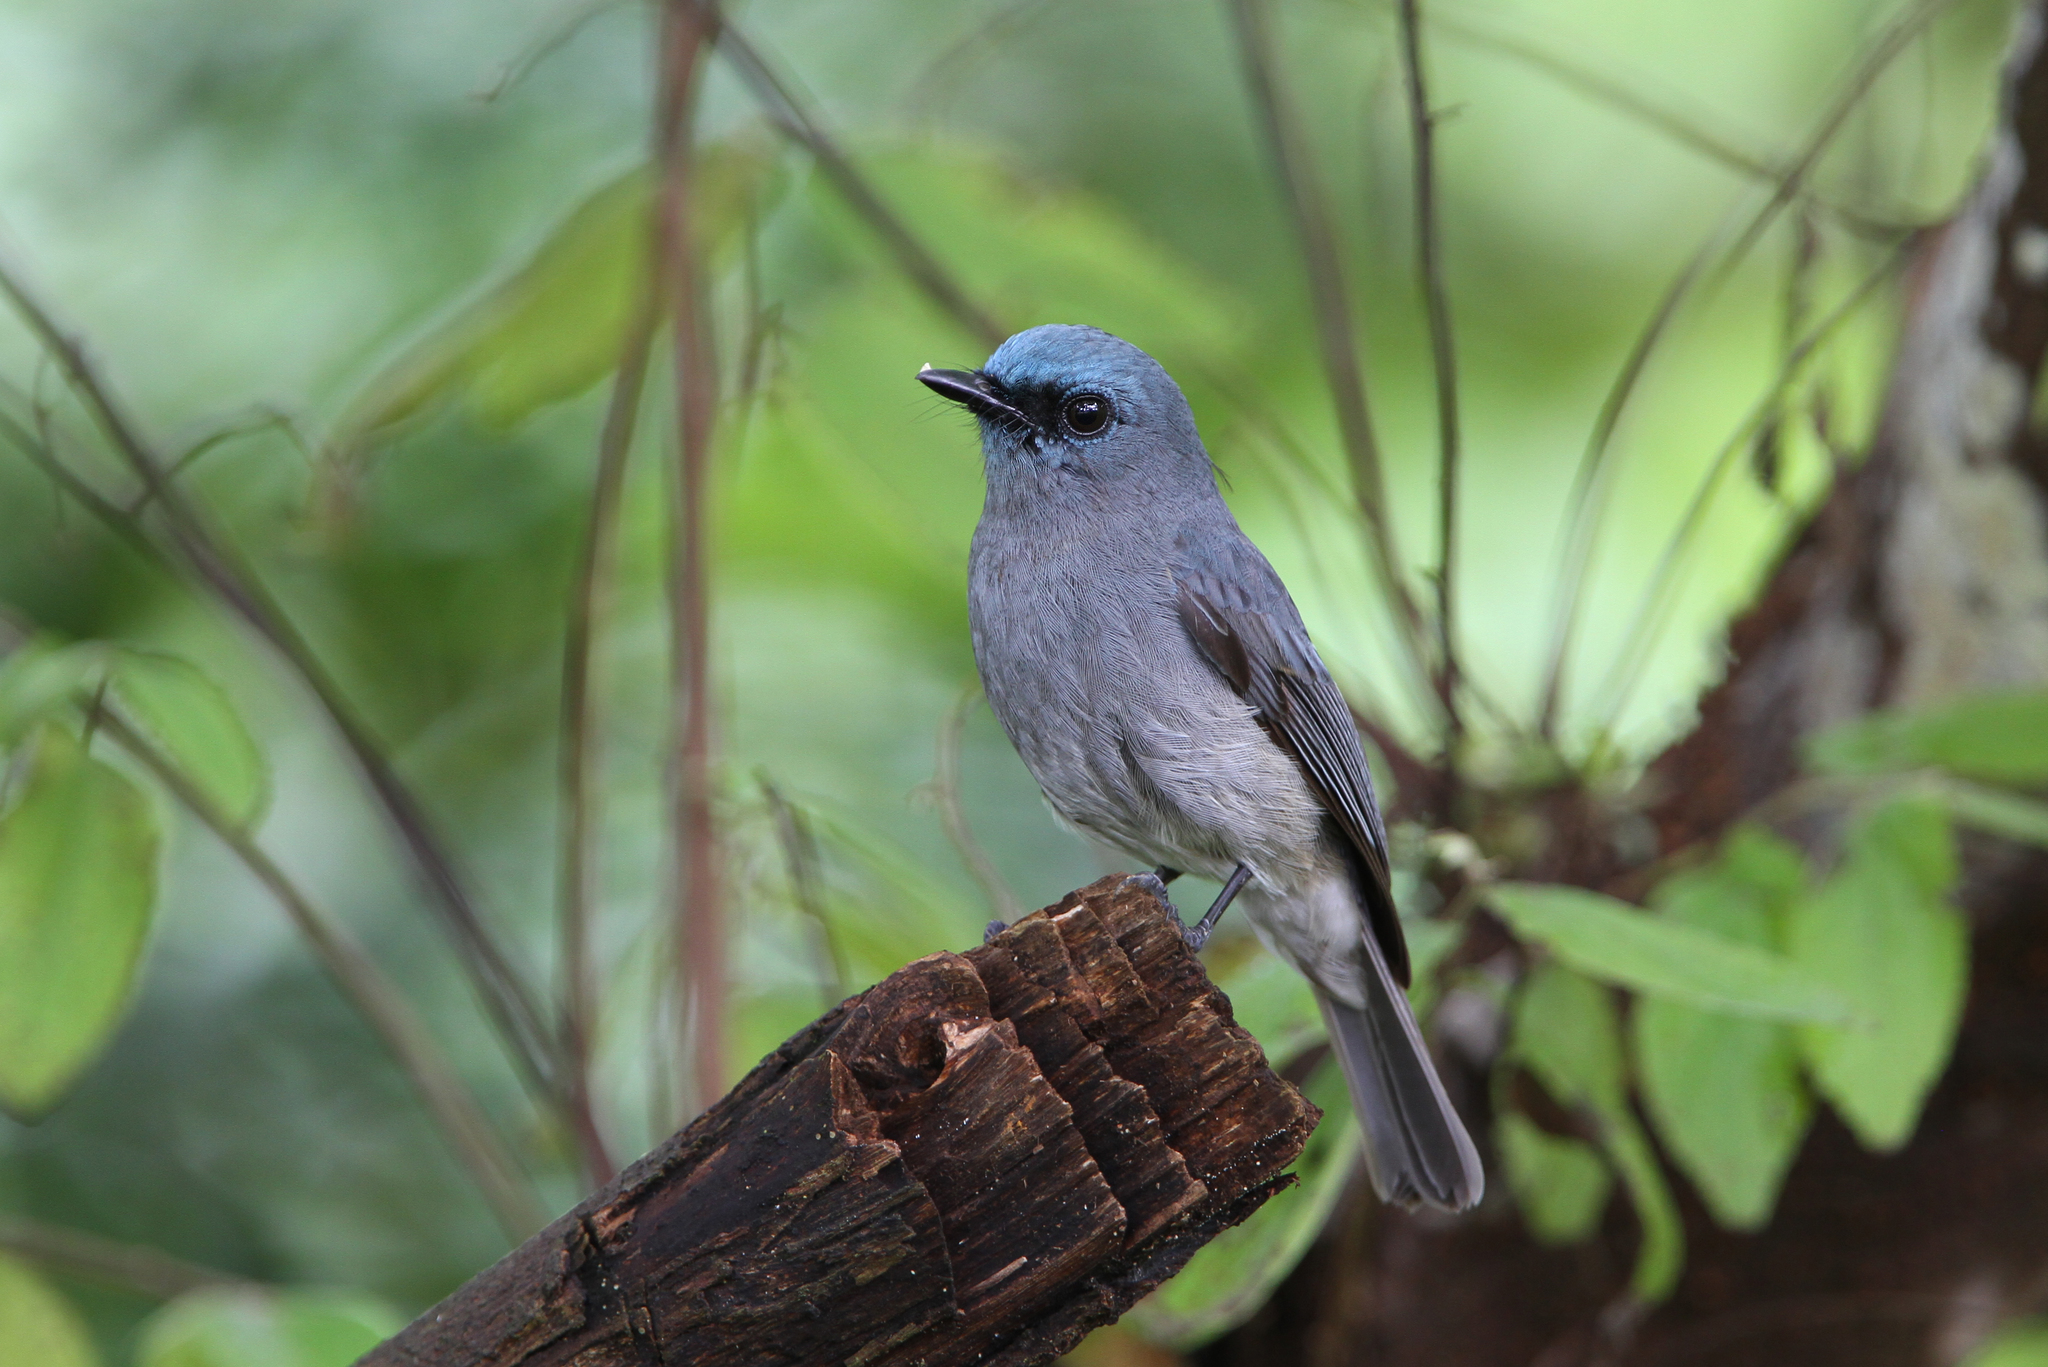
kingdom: Animalia
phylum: Chordata
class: Aves
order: Passeriformes
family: Muscicapidae
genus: Eumyias
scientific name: Eumyias sordidus
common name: Dull-blue flycatcher
